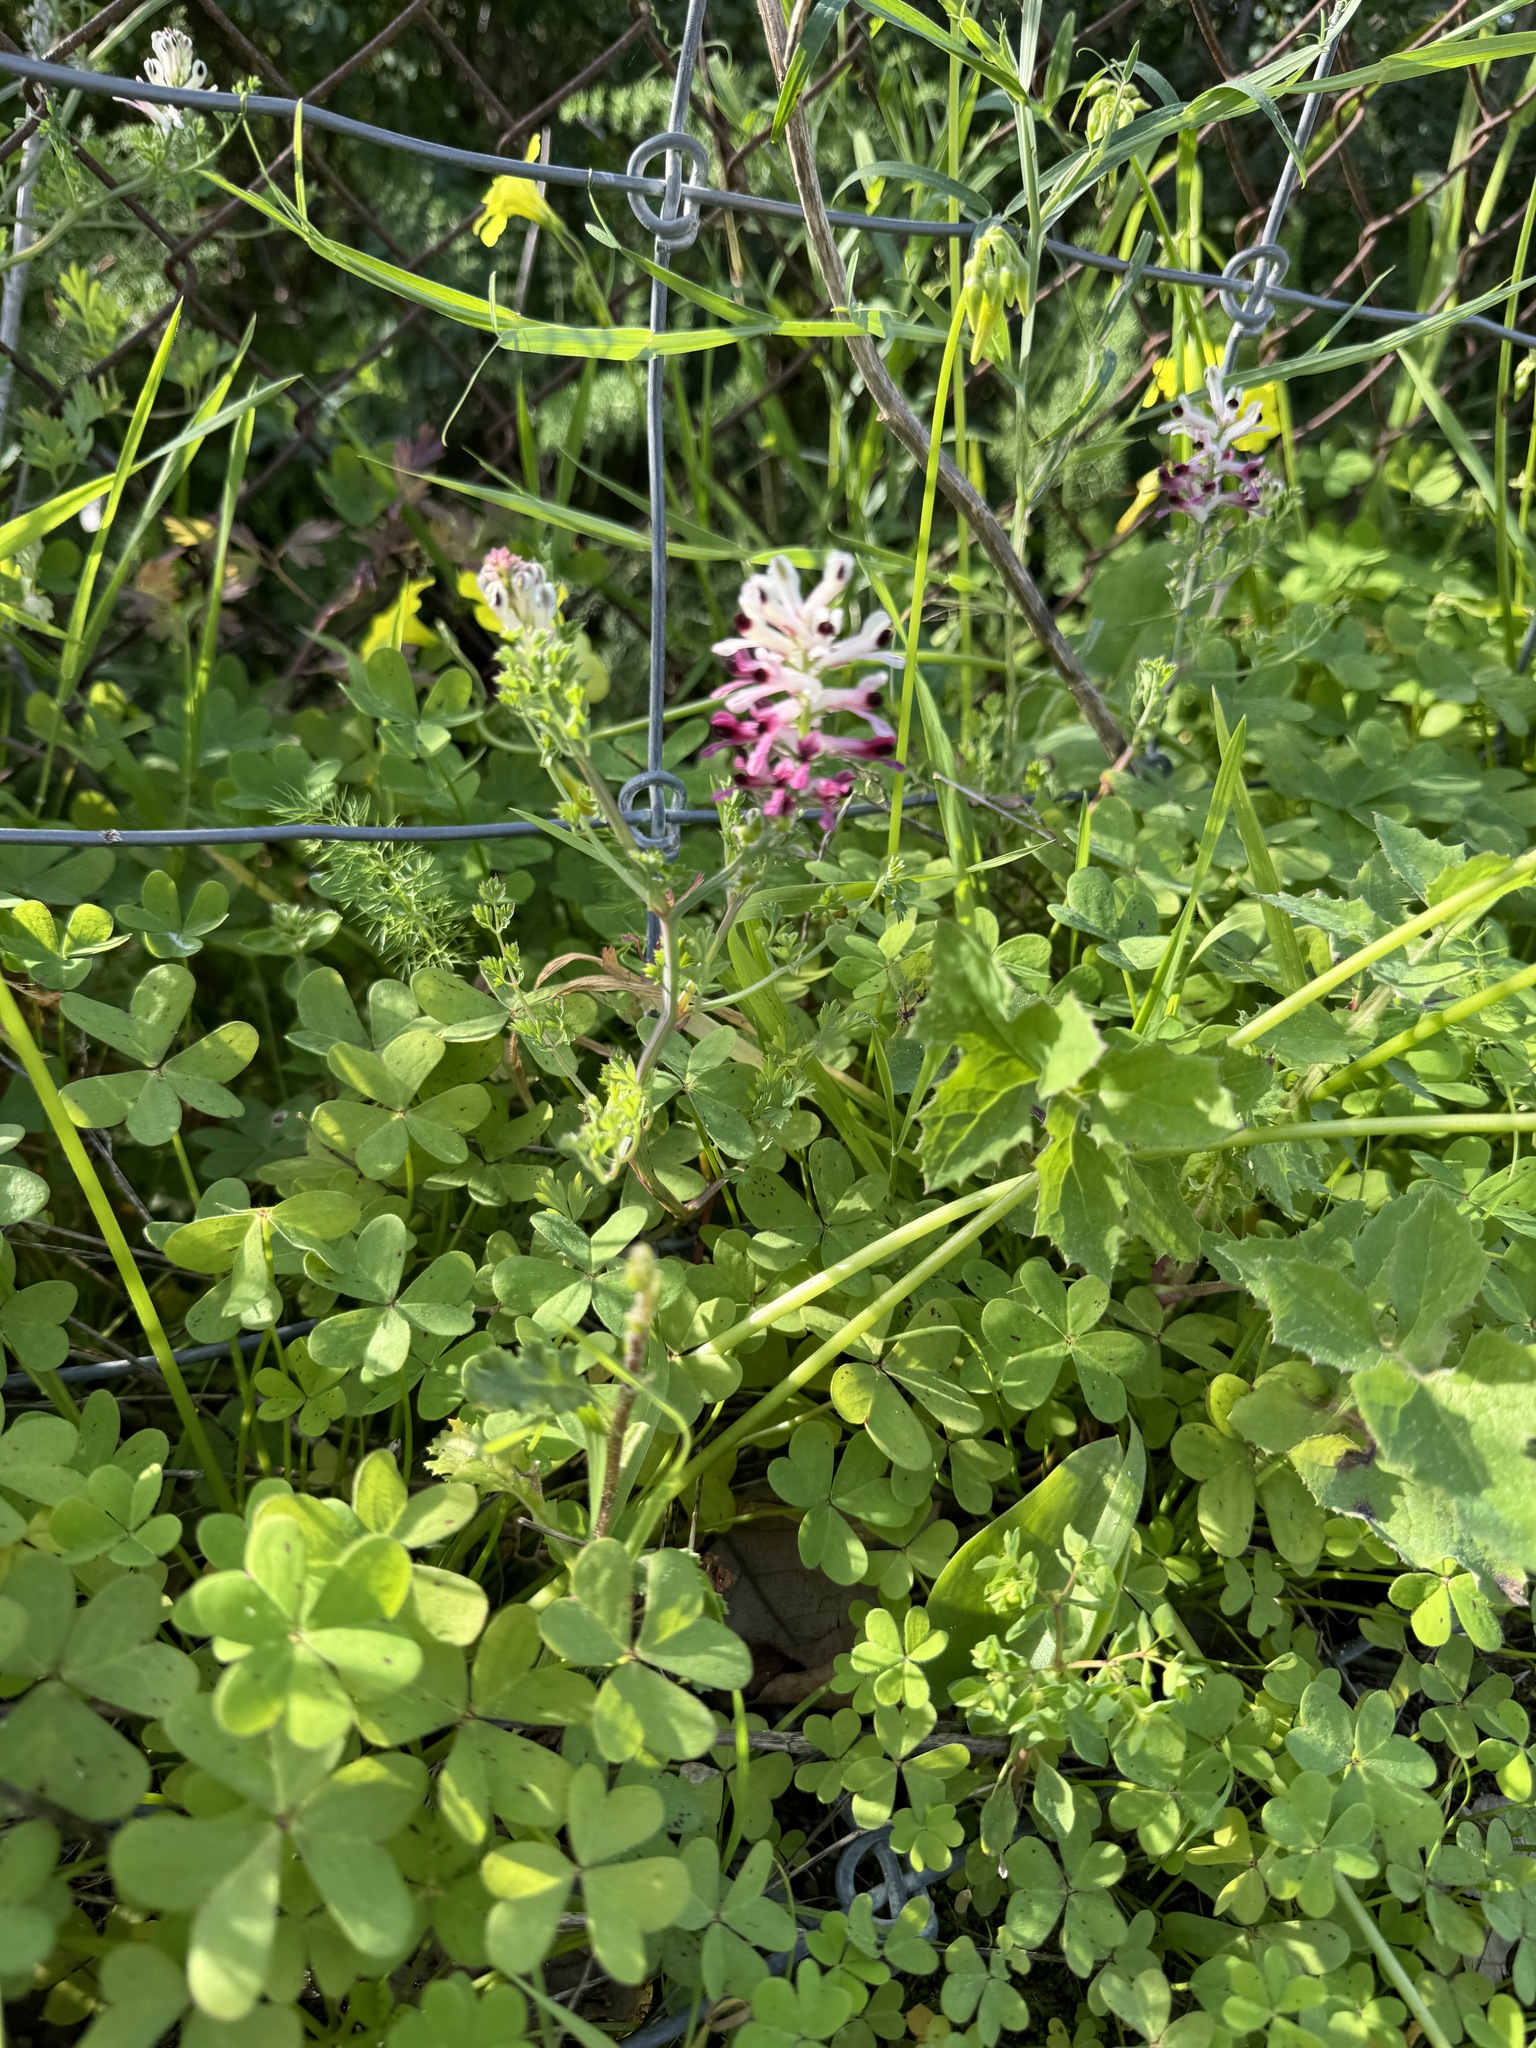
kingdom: Plantae
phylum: Tracheophyta
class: Magnoliopsida
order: Ranunculales
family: Papaveraceae
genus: Fumaria
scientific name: Fumaria agraria
